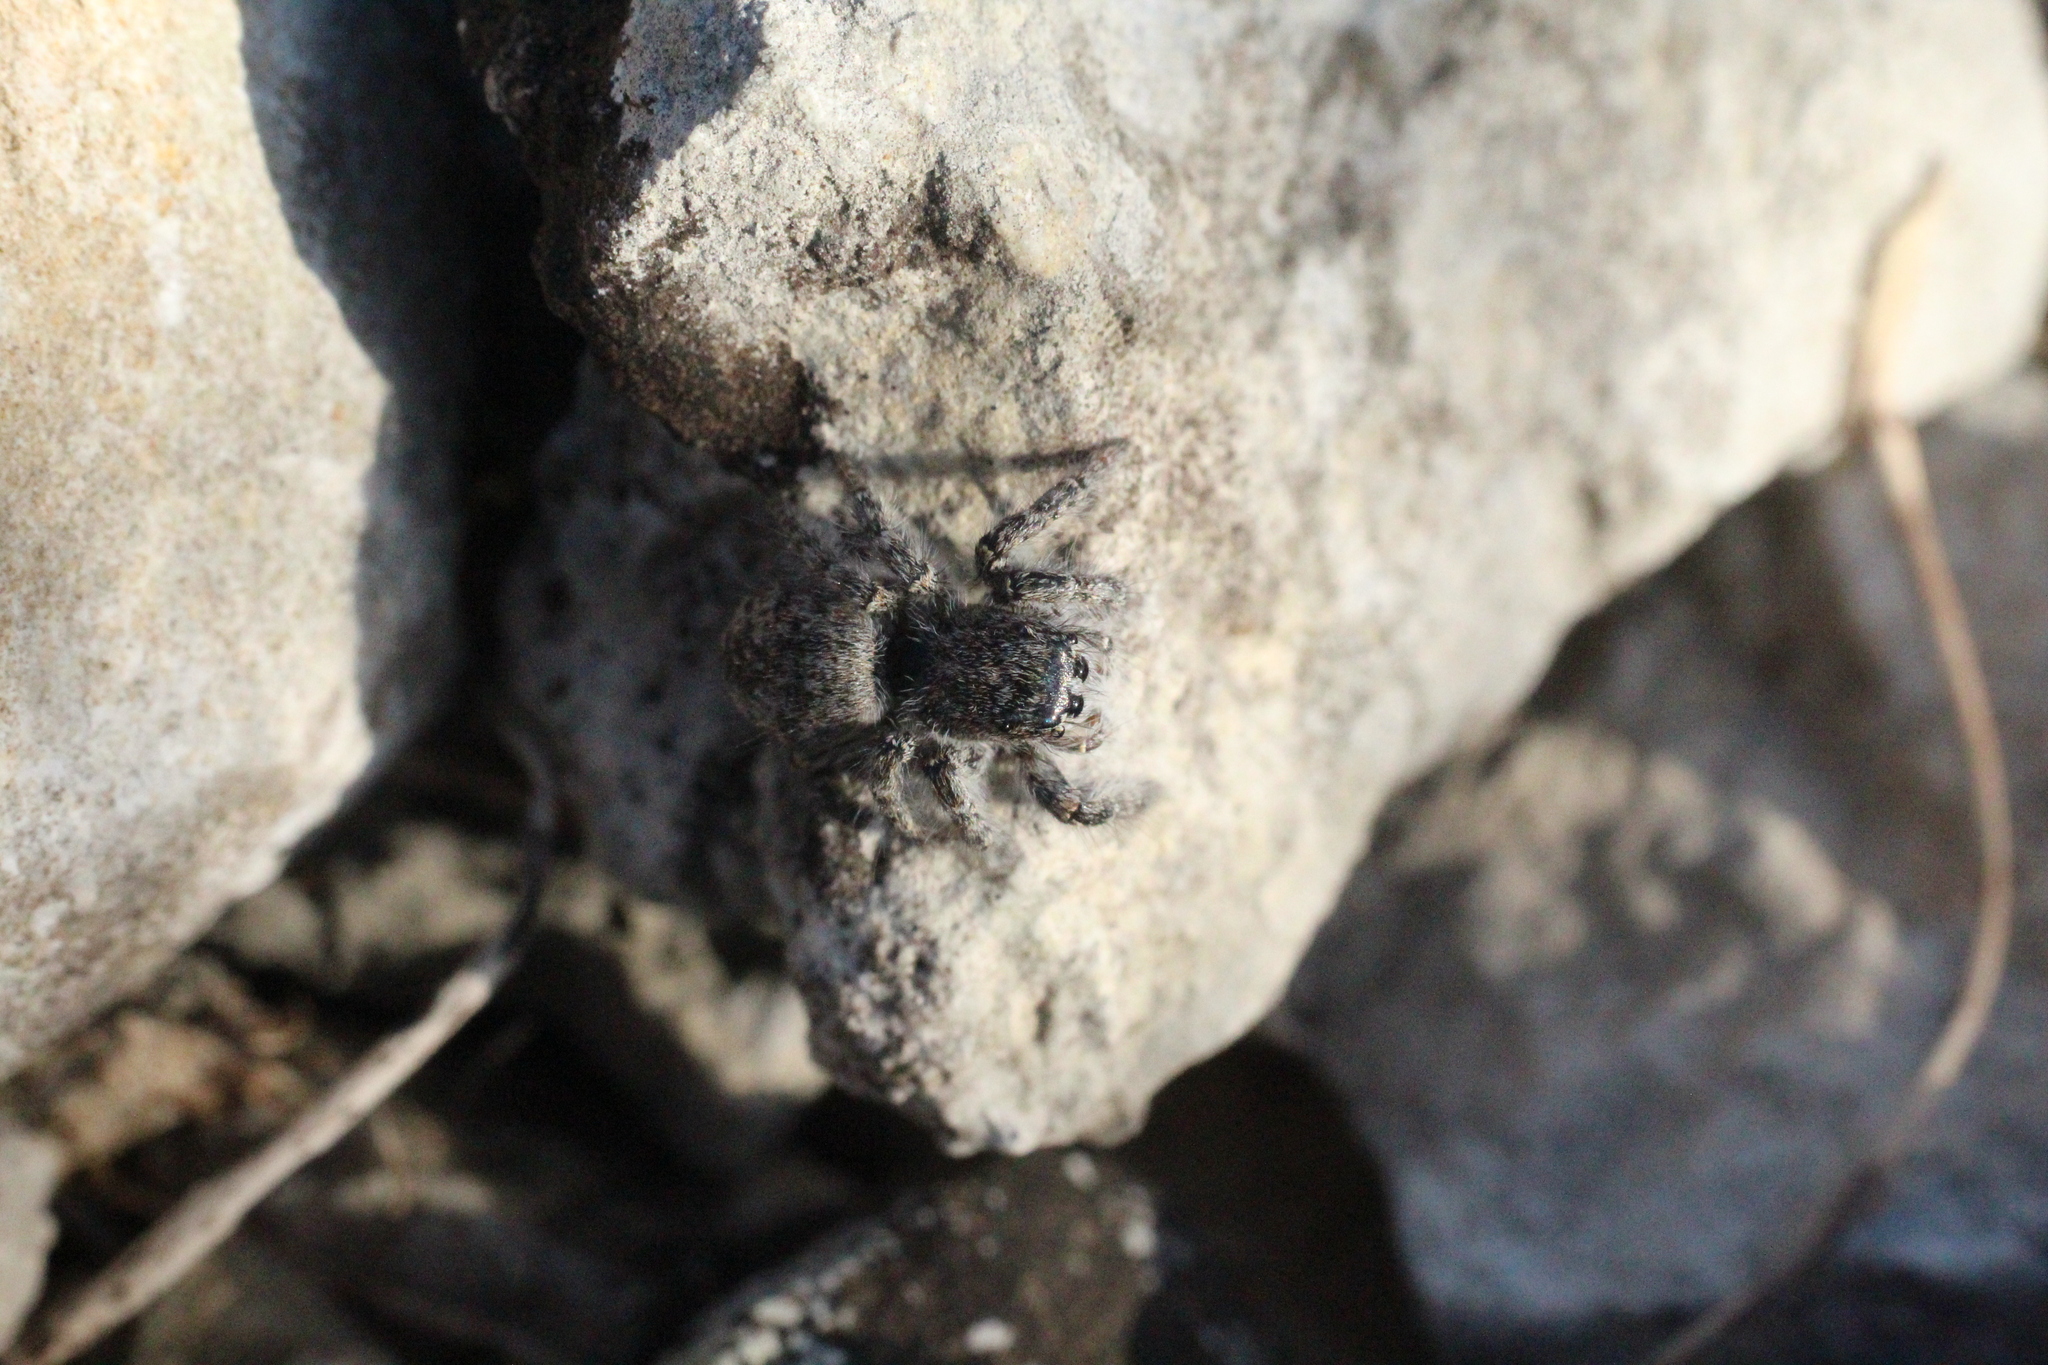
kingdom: Animalia
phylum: Arthropoda
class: Arachnida
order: Araneae
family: Salticidae
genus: Philaeus
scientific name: Philaeus chrysops
